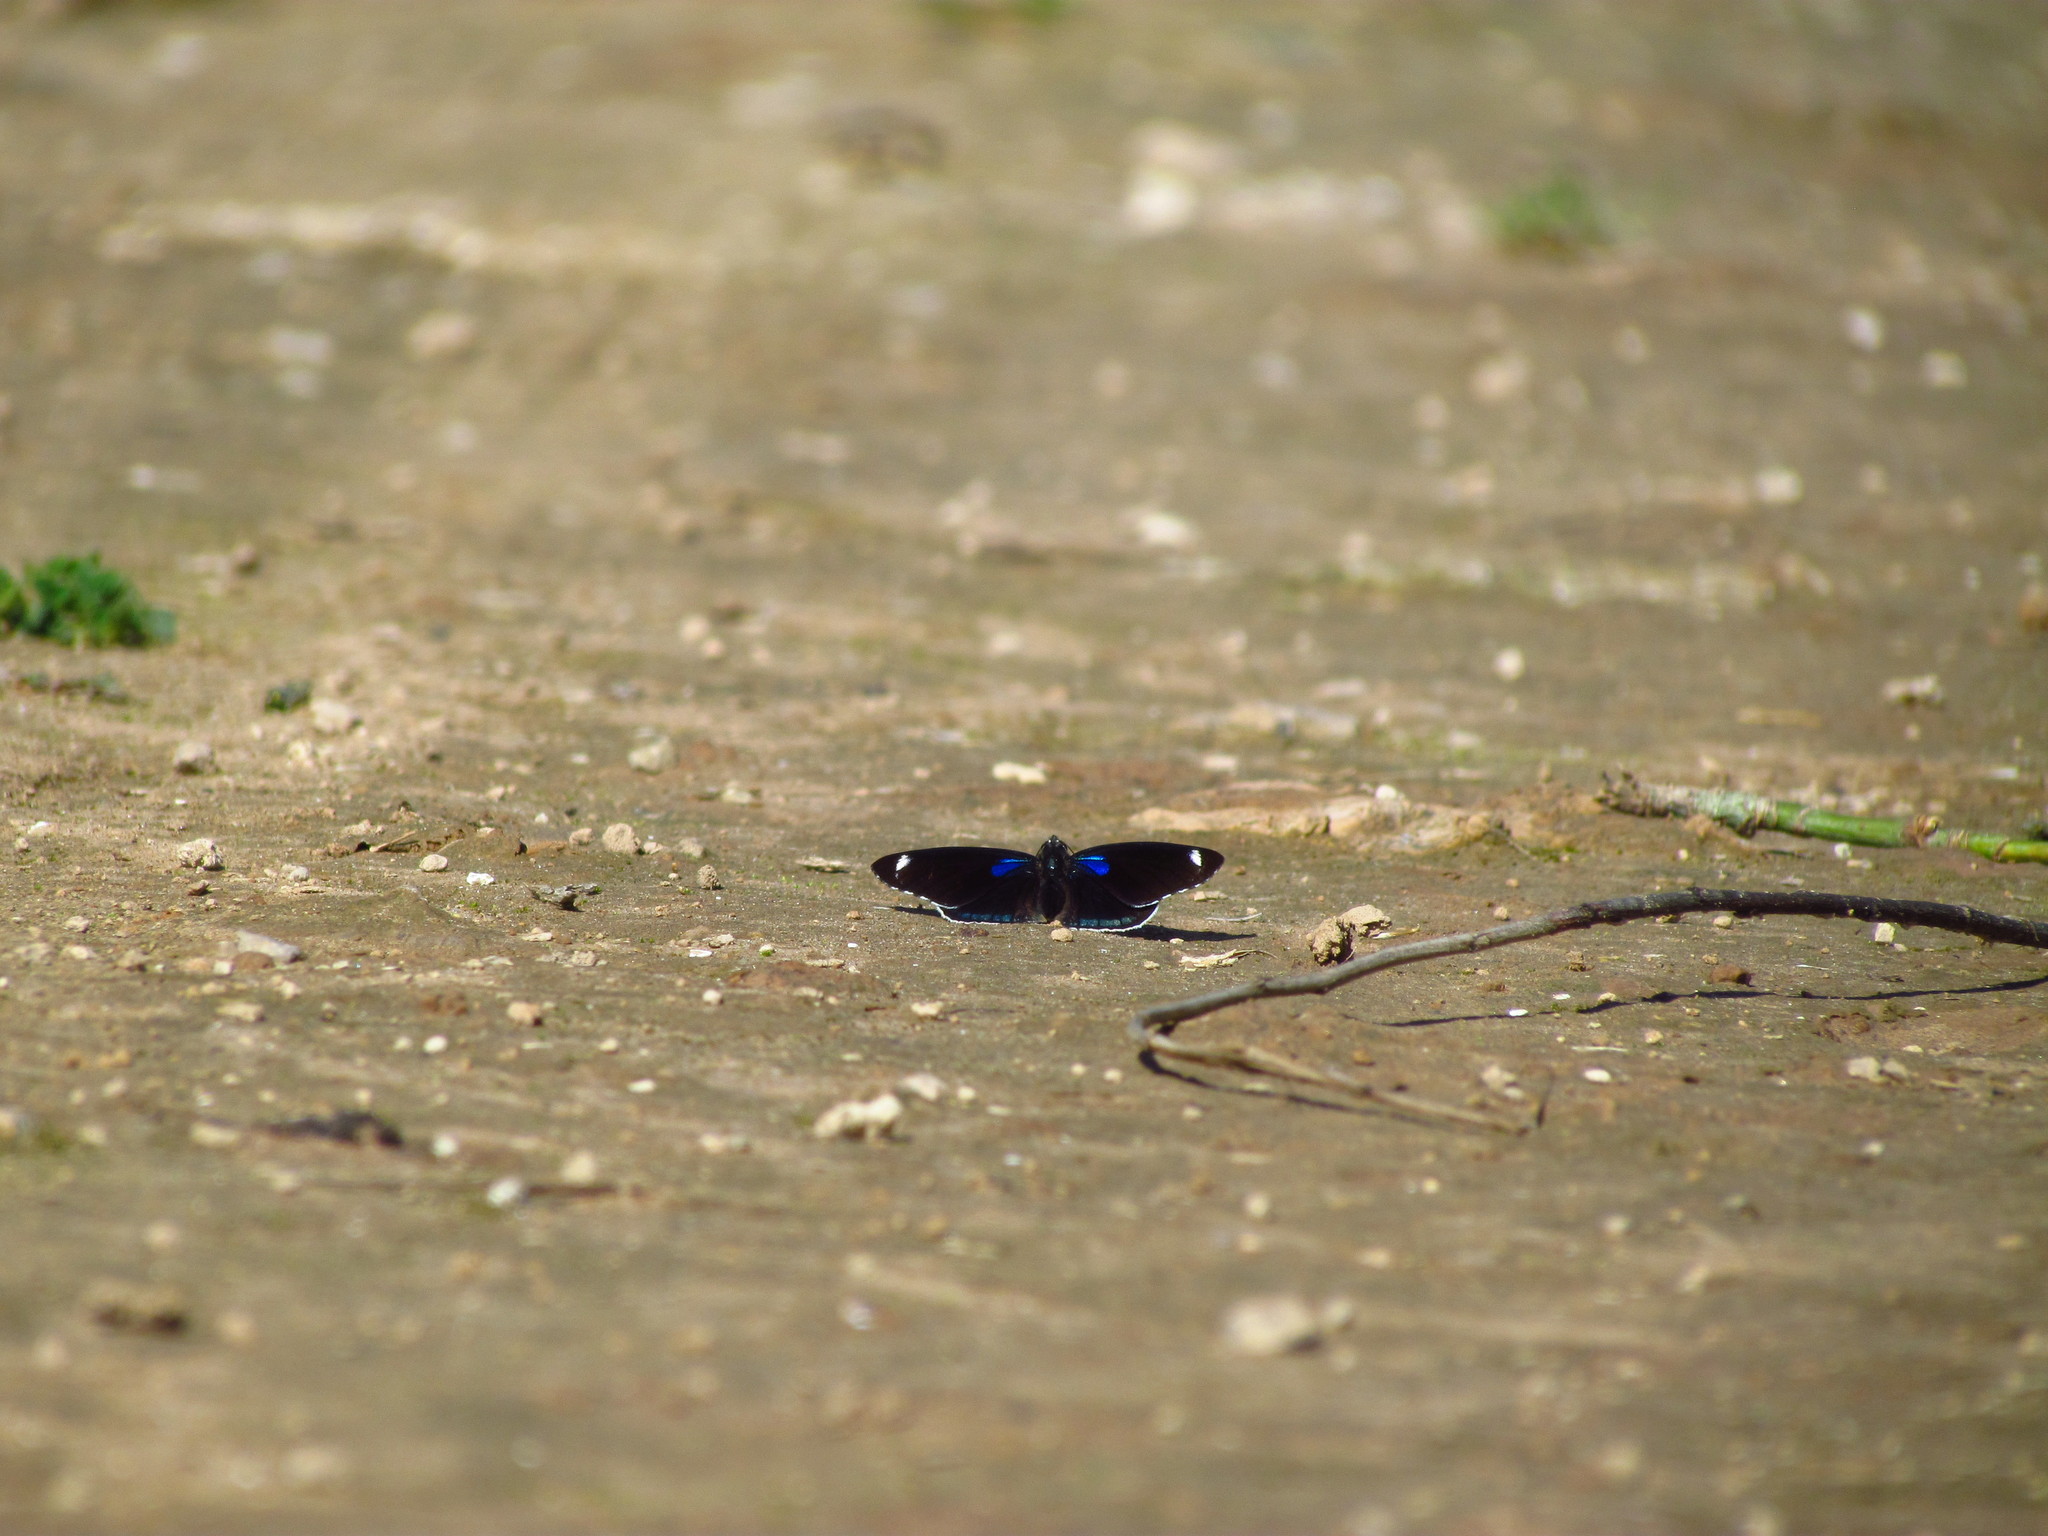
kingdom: Animalia
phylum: Arthropoda
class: Insecta
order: Lepidoptera
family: Nymphalidae
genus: Diaethria
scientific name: Diaethria candrena
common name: Number eighty
